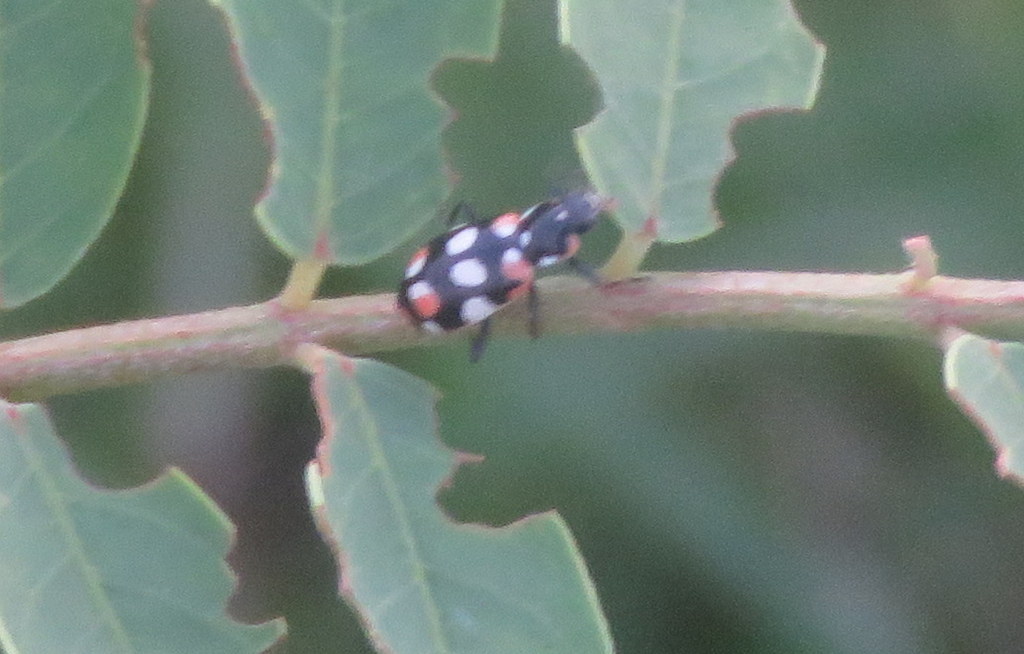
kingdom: Animalia
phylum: Arthropoda
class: Insecta
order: Coleoptera
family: Coccinellidae
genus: Eriopis
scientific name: Eriopis connexa
